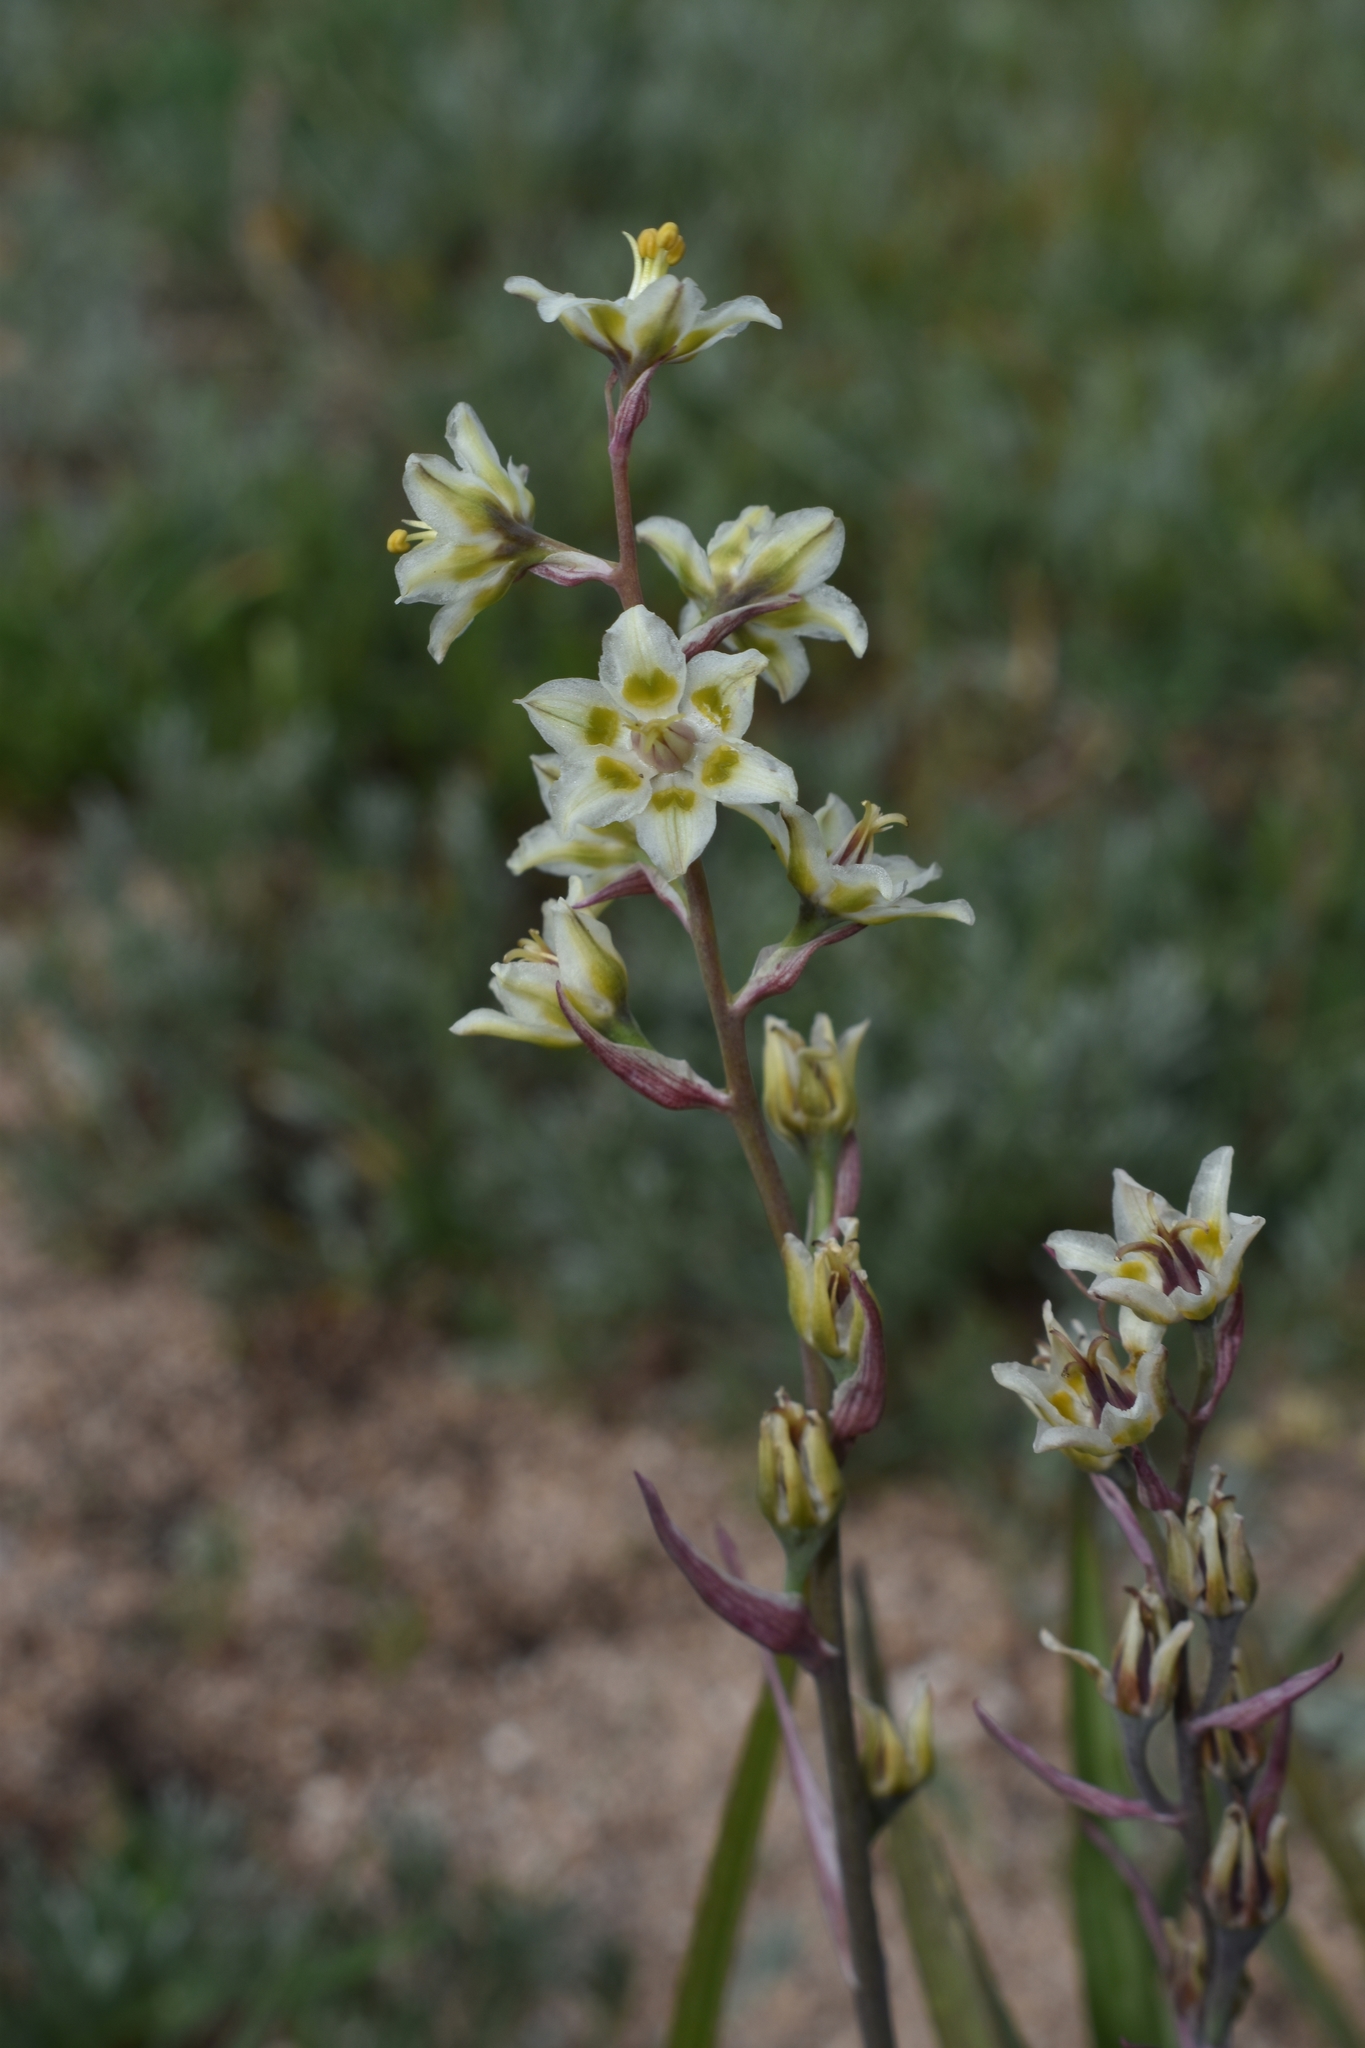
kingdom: Plantae
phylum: Tracheophyta
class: Liliopsida
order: Liliales
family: Melanthiaceae
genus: Anticlea
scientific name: Anticlea elegans
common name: Mountain death camas
